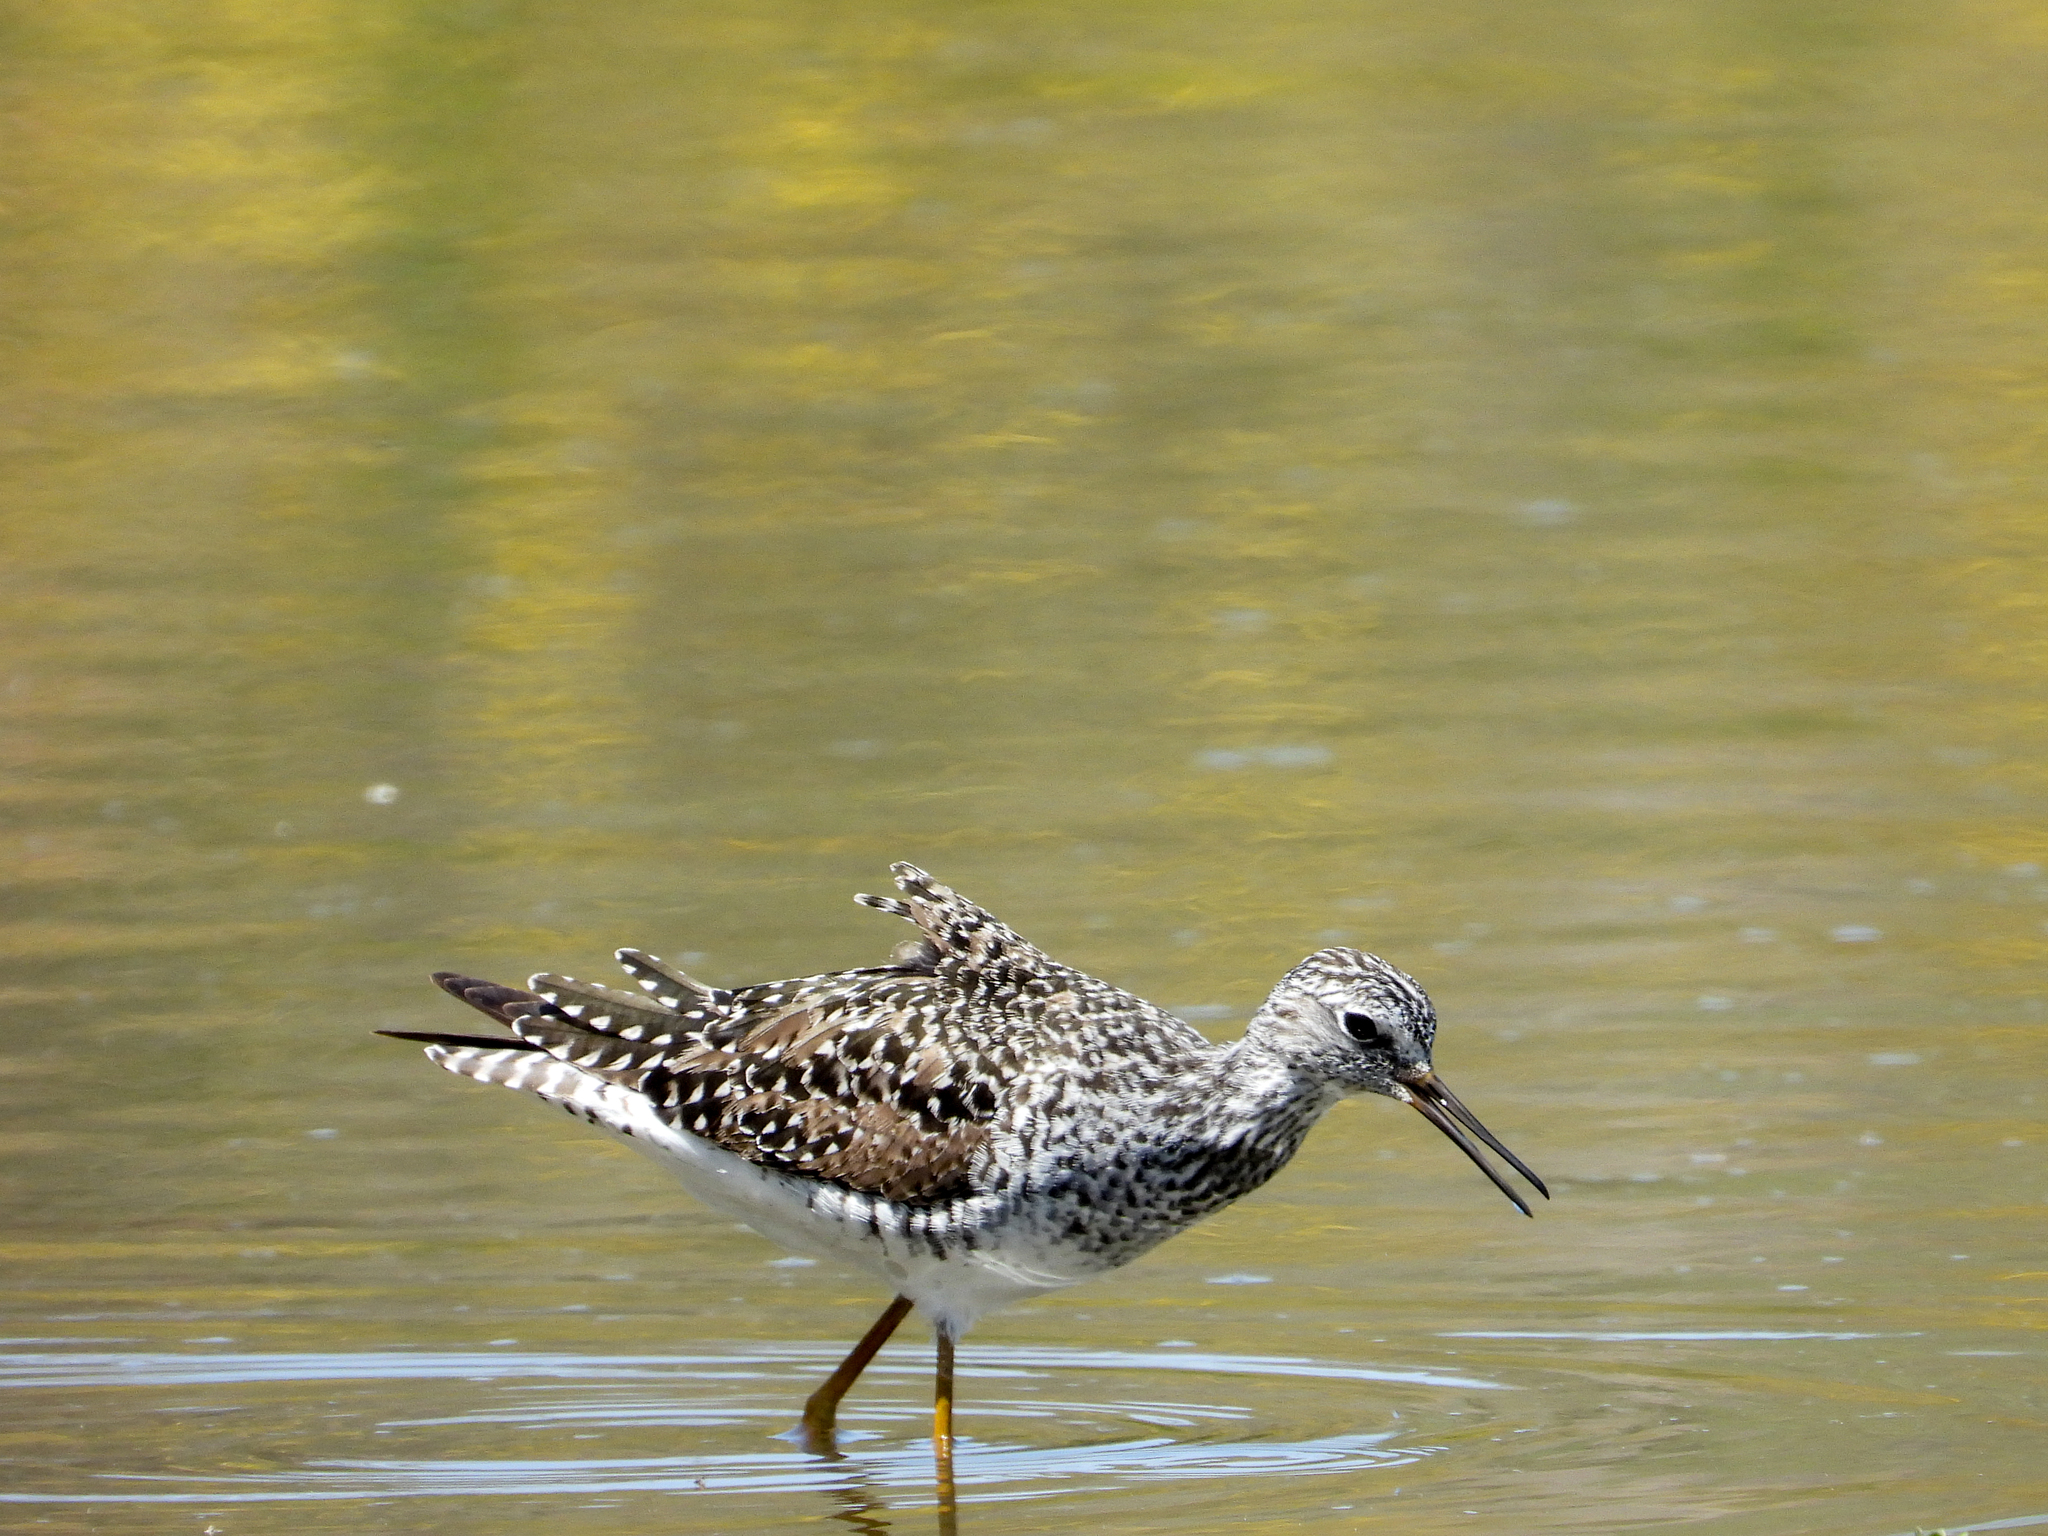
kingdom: Animalia
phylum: Chordata
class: Aves
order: Charadriiformes
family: Scolopacidae
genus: Tringa
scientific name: Tringa flavipes
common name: Lesser yellowlegs
